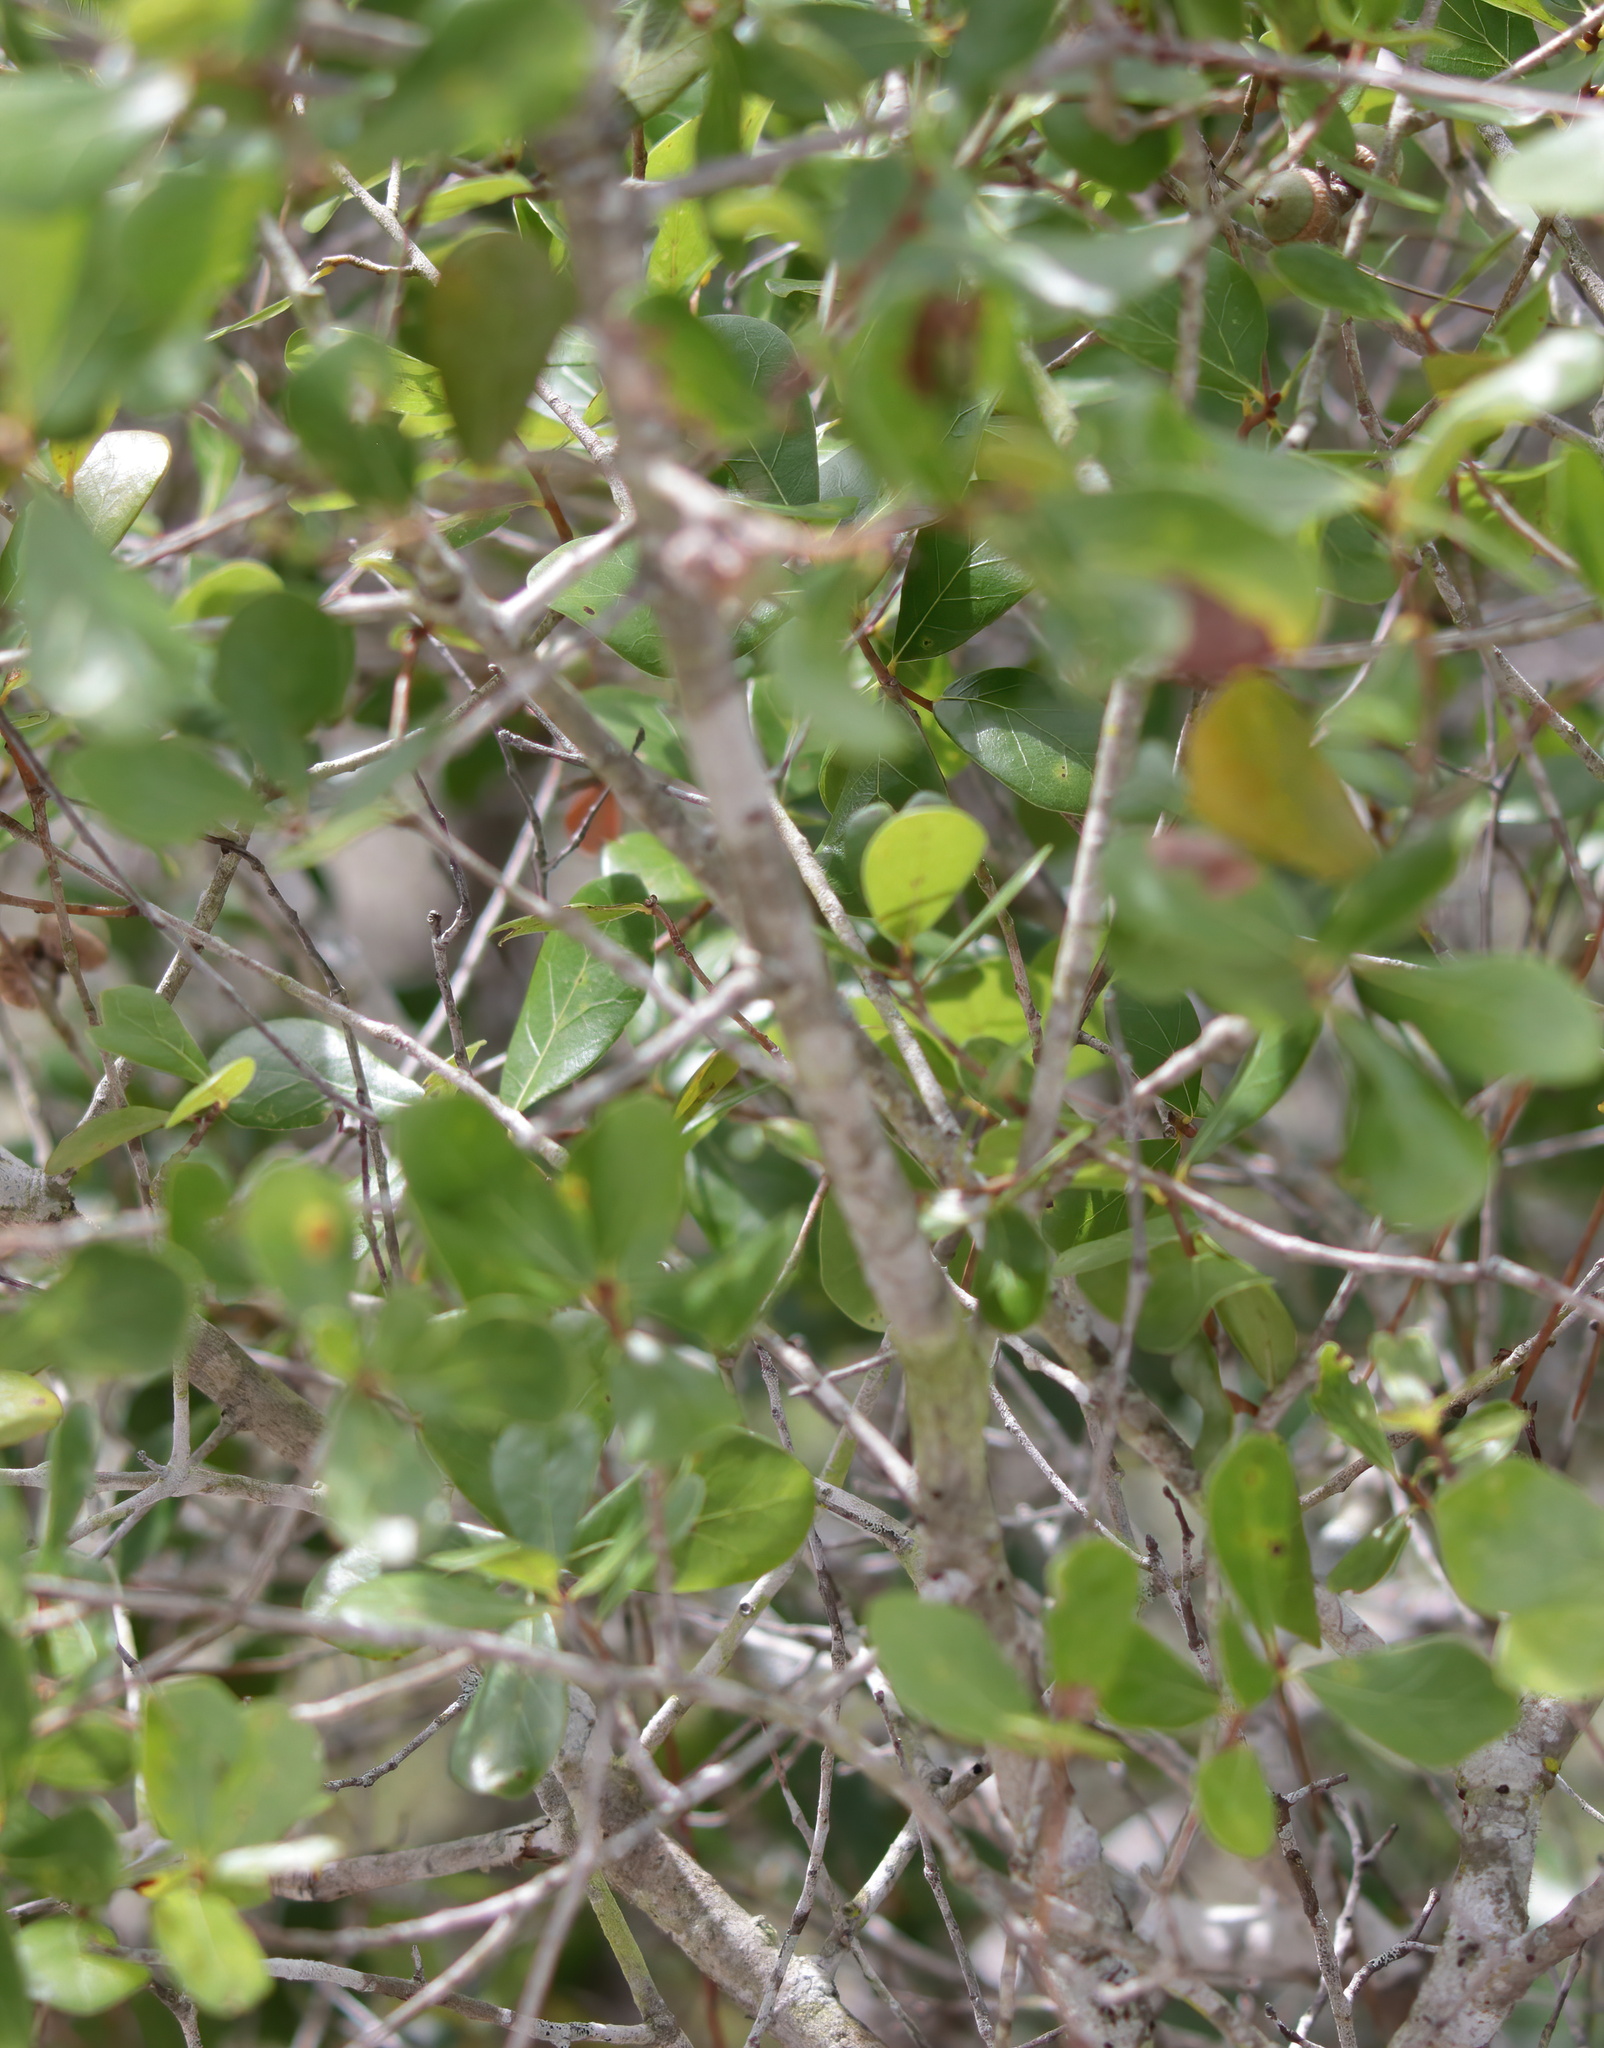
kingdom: Plantae
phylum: Tracheophyta
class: Magnoliopsida
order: Fagales
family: Fagaceae
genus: Quercus
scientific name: Quercus myrtifolia
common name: Myrtle oak
